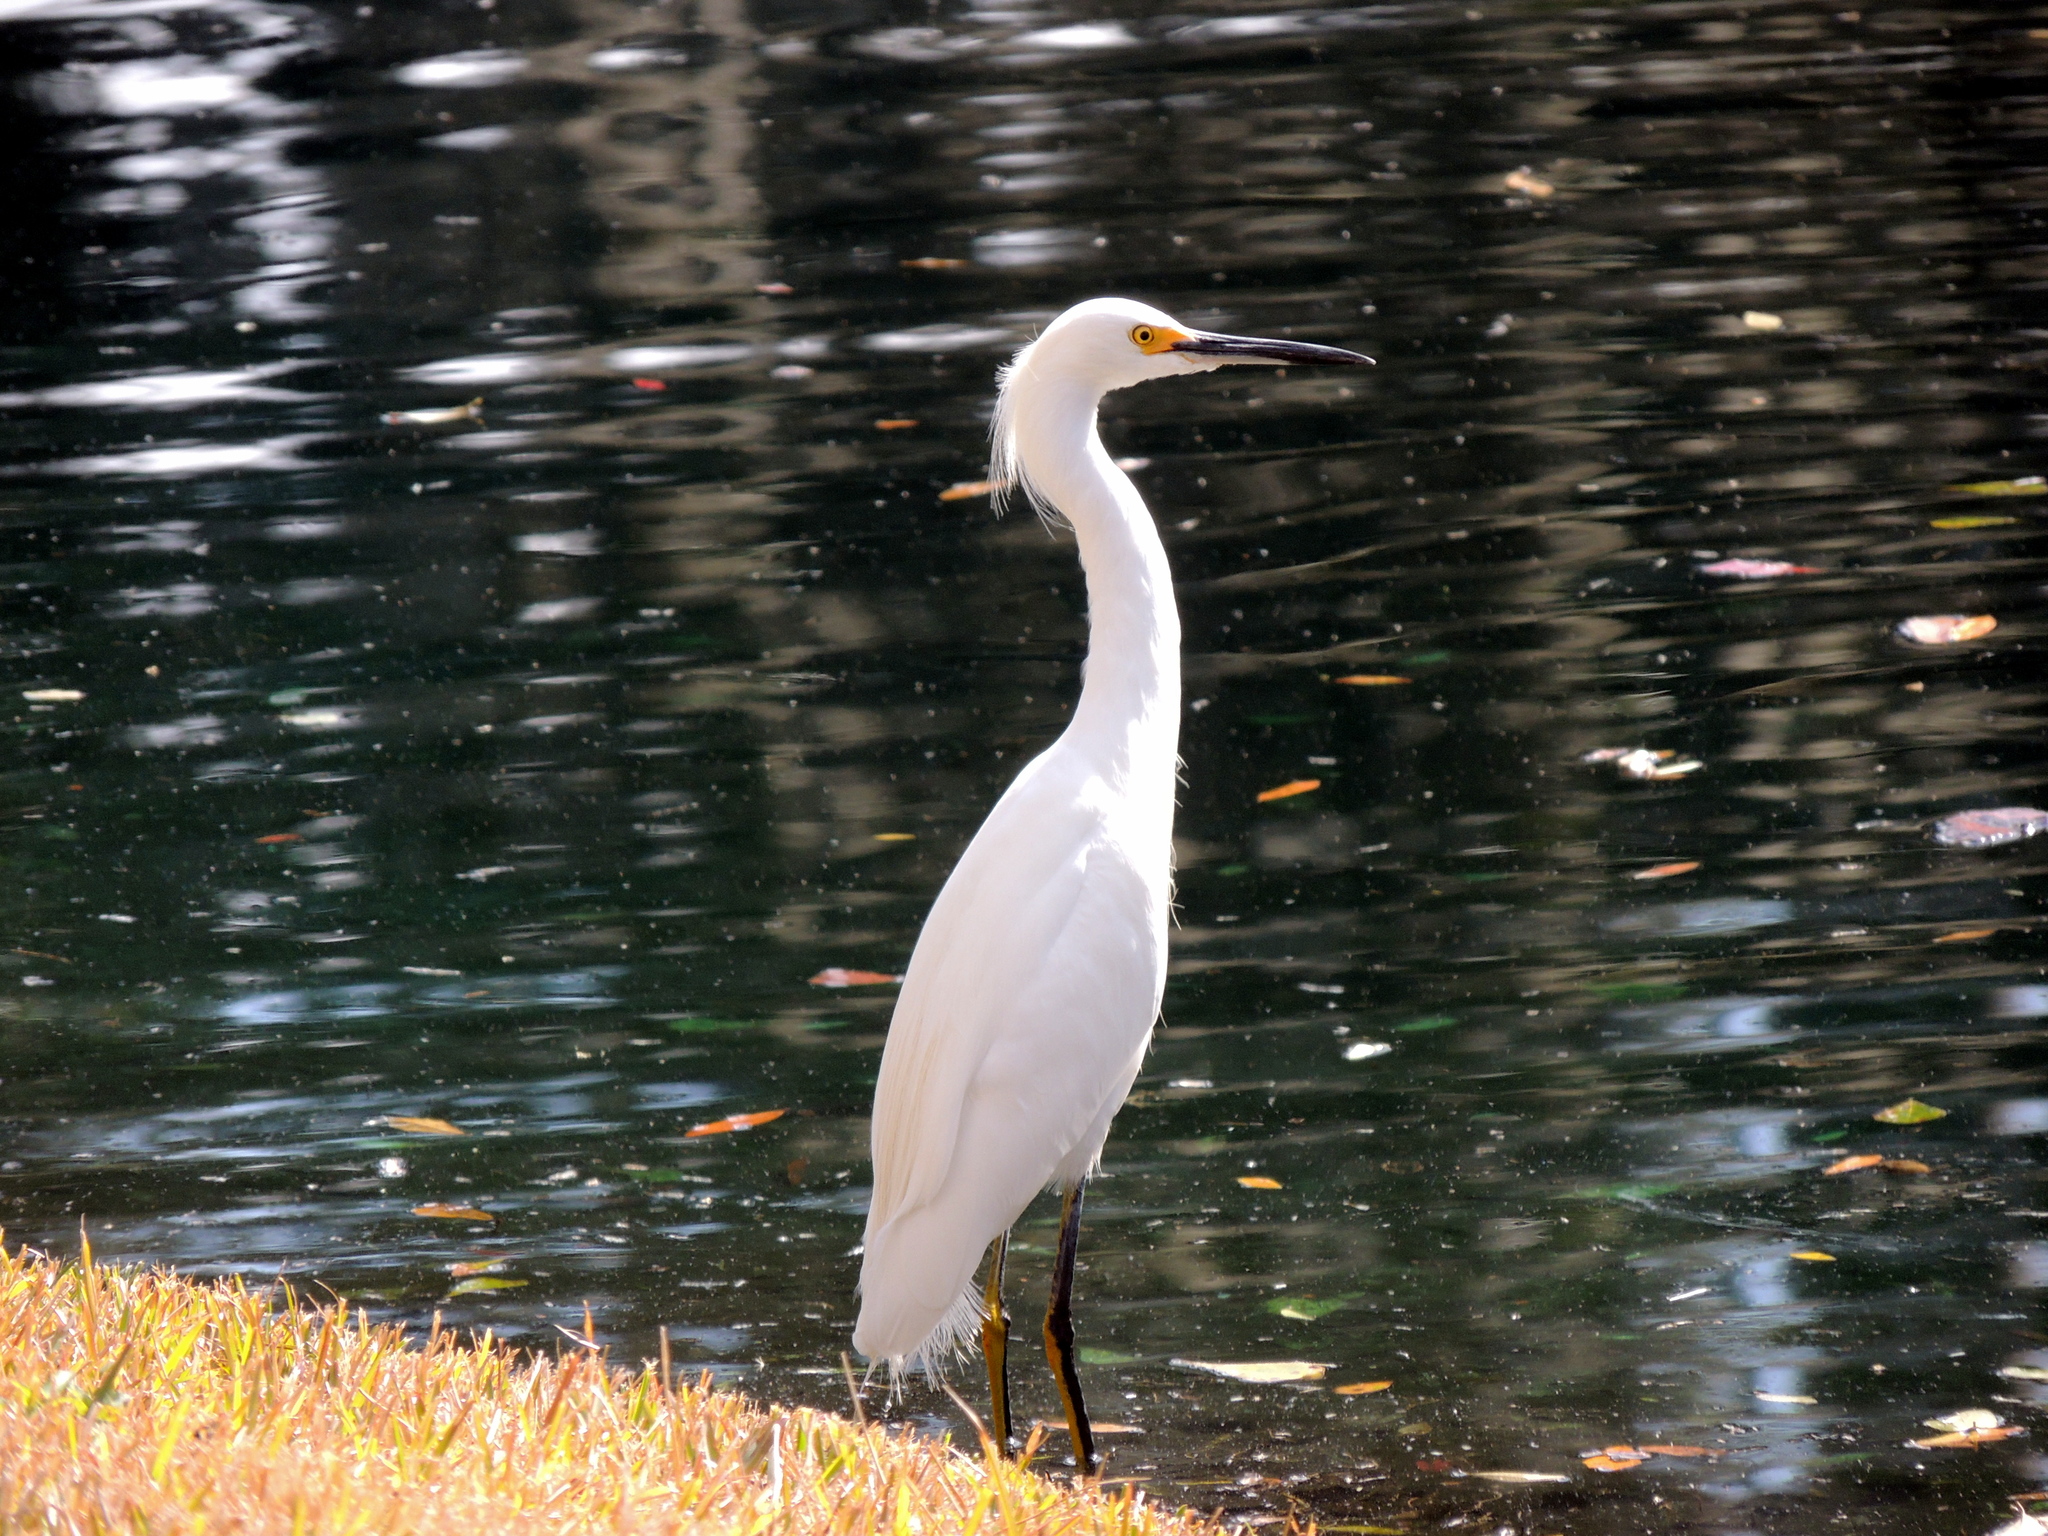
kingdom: Animalia
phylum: Chordata
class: Aves
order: Pelecaniformes
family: Ardeidae
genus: Egretta
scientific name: Egretta thula
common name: Snowy egret
